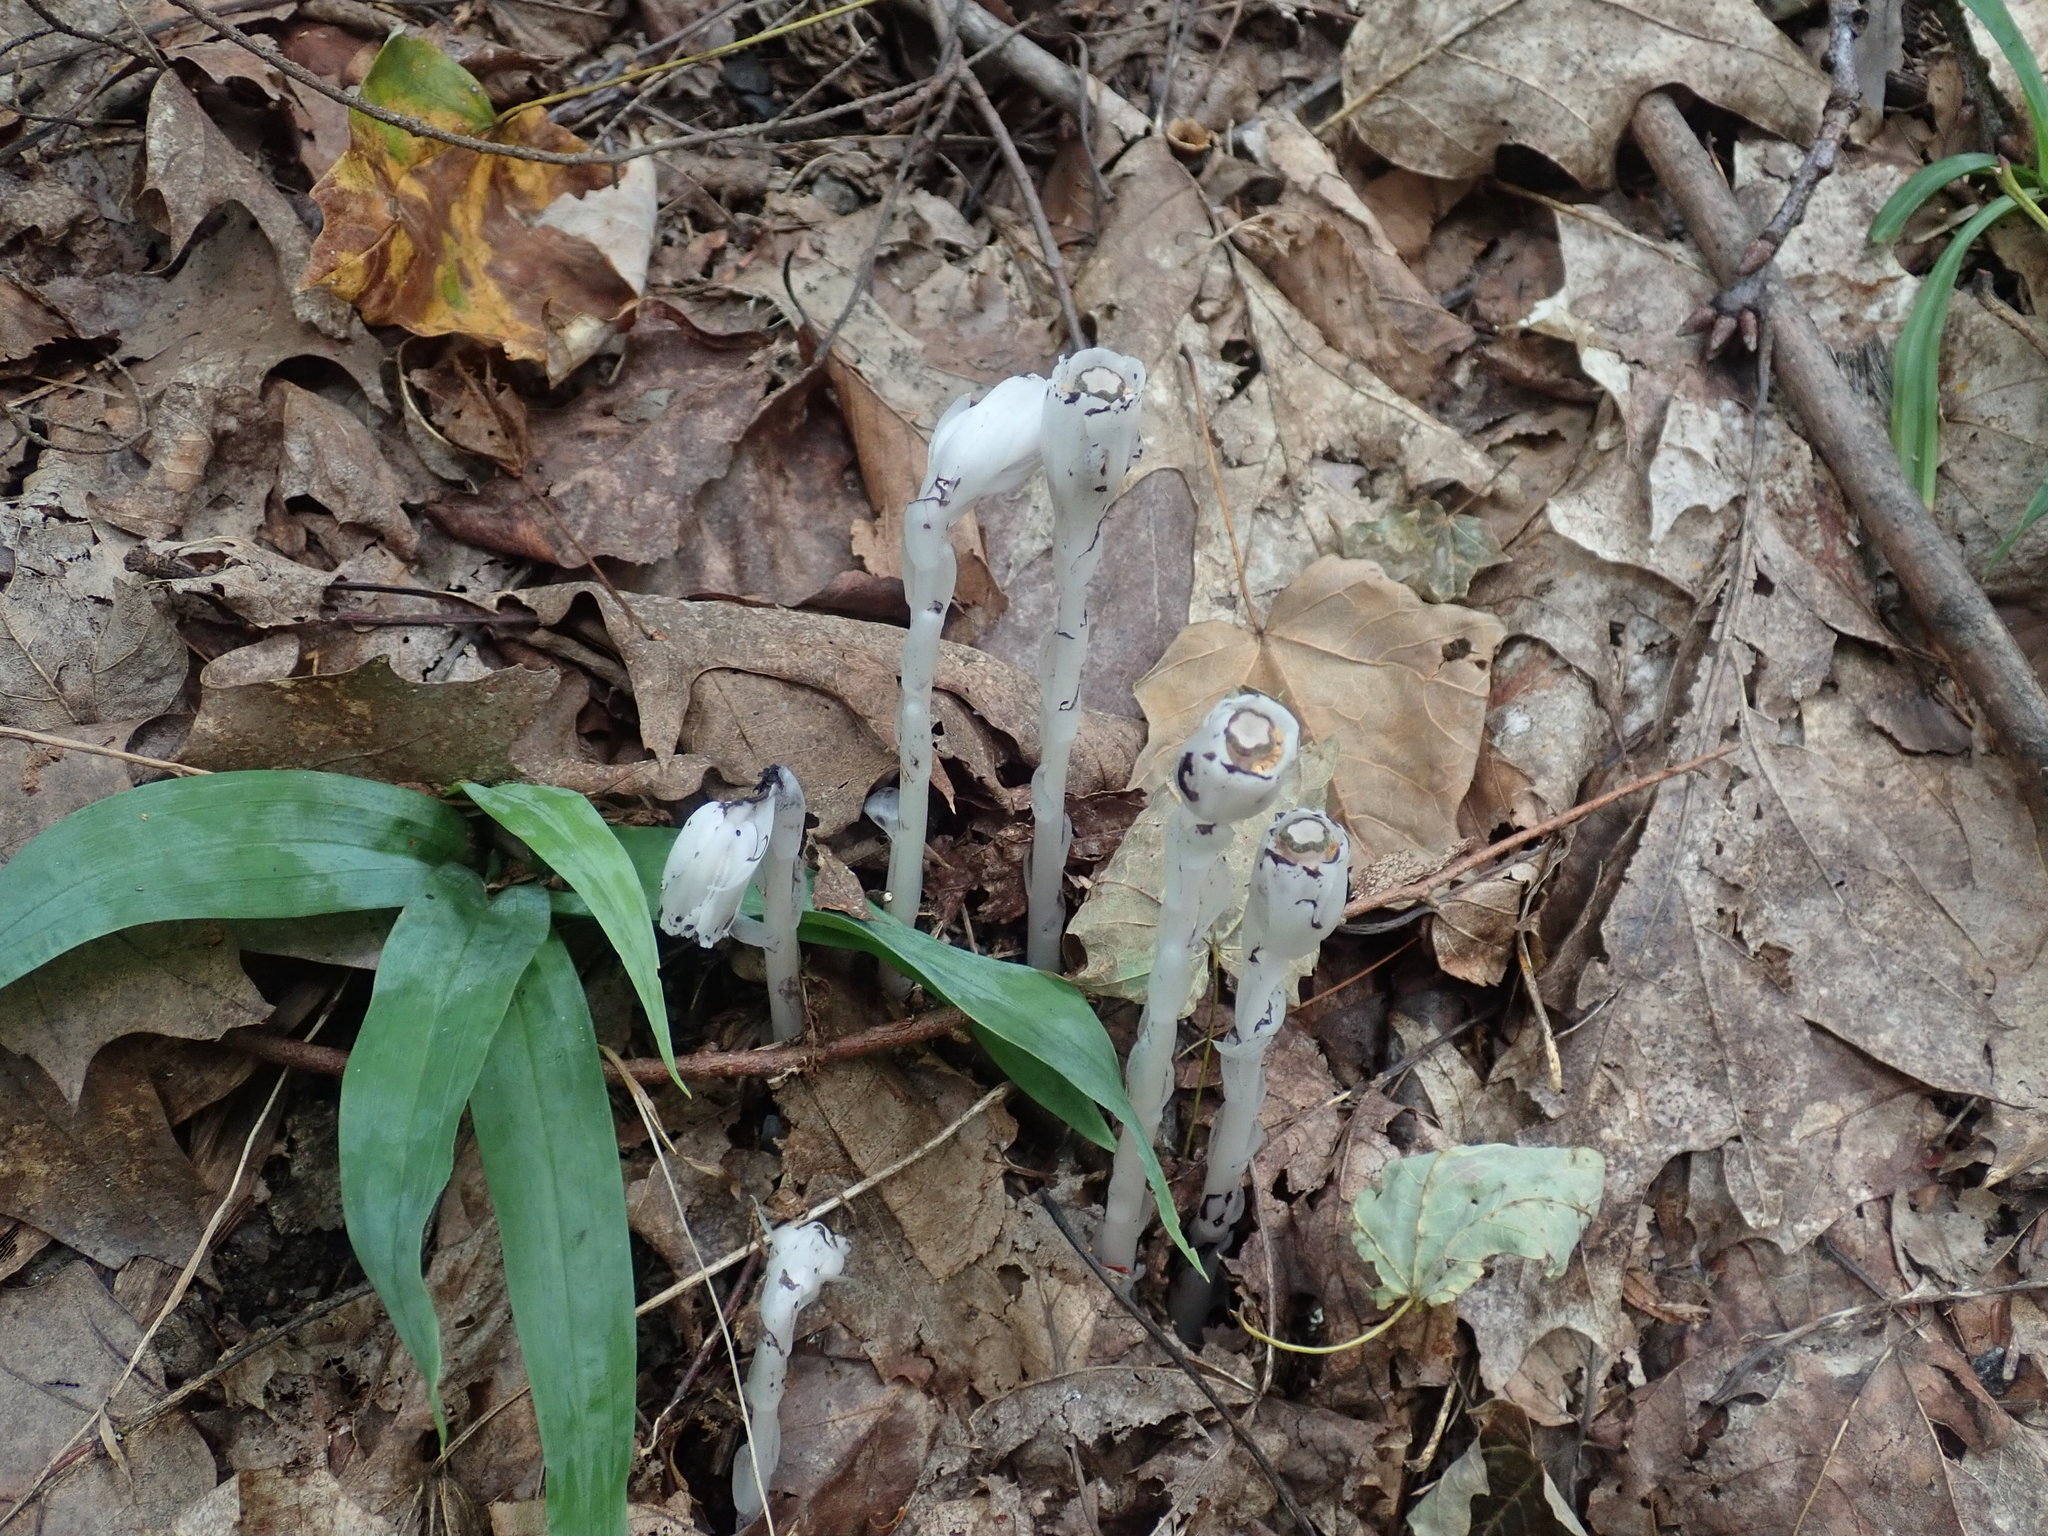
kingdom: Plantae
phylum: Tracheophyta
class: Magnoliopsida
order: Ericales
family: Ericaceae
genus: Monotropa
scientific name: Monotropa uniflora
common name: Convulsion root
